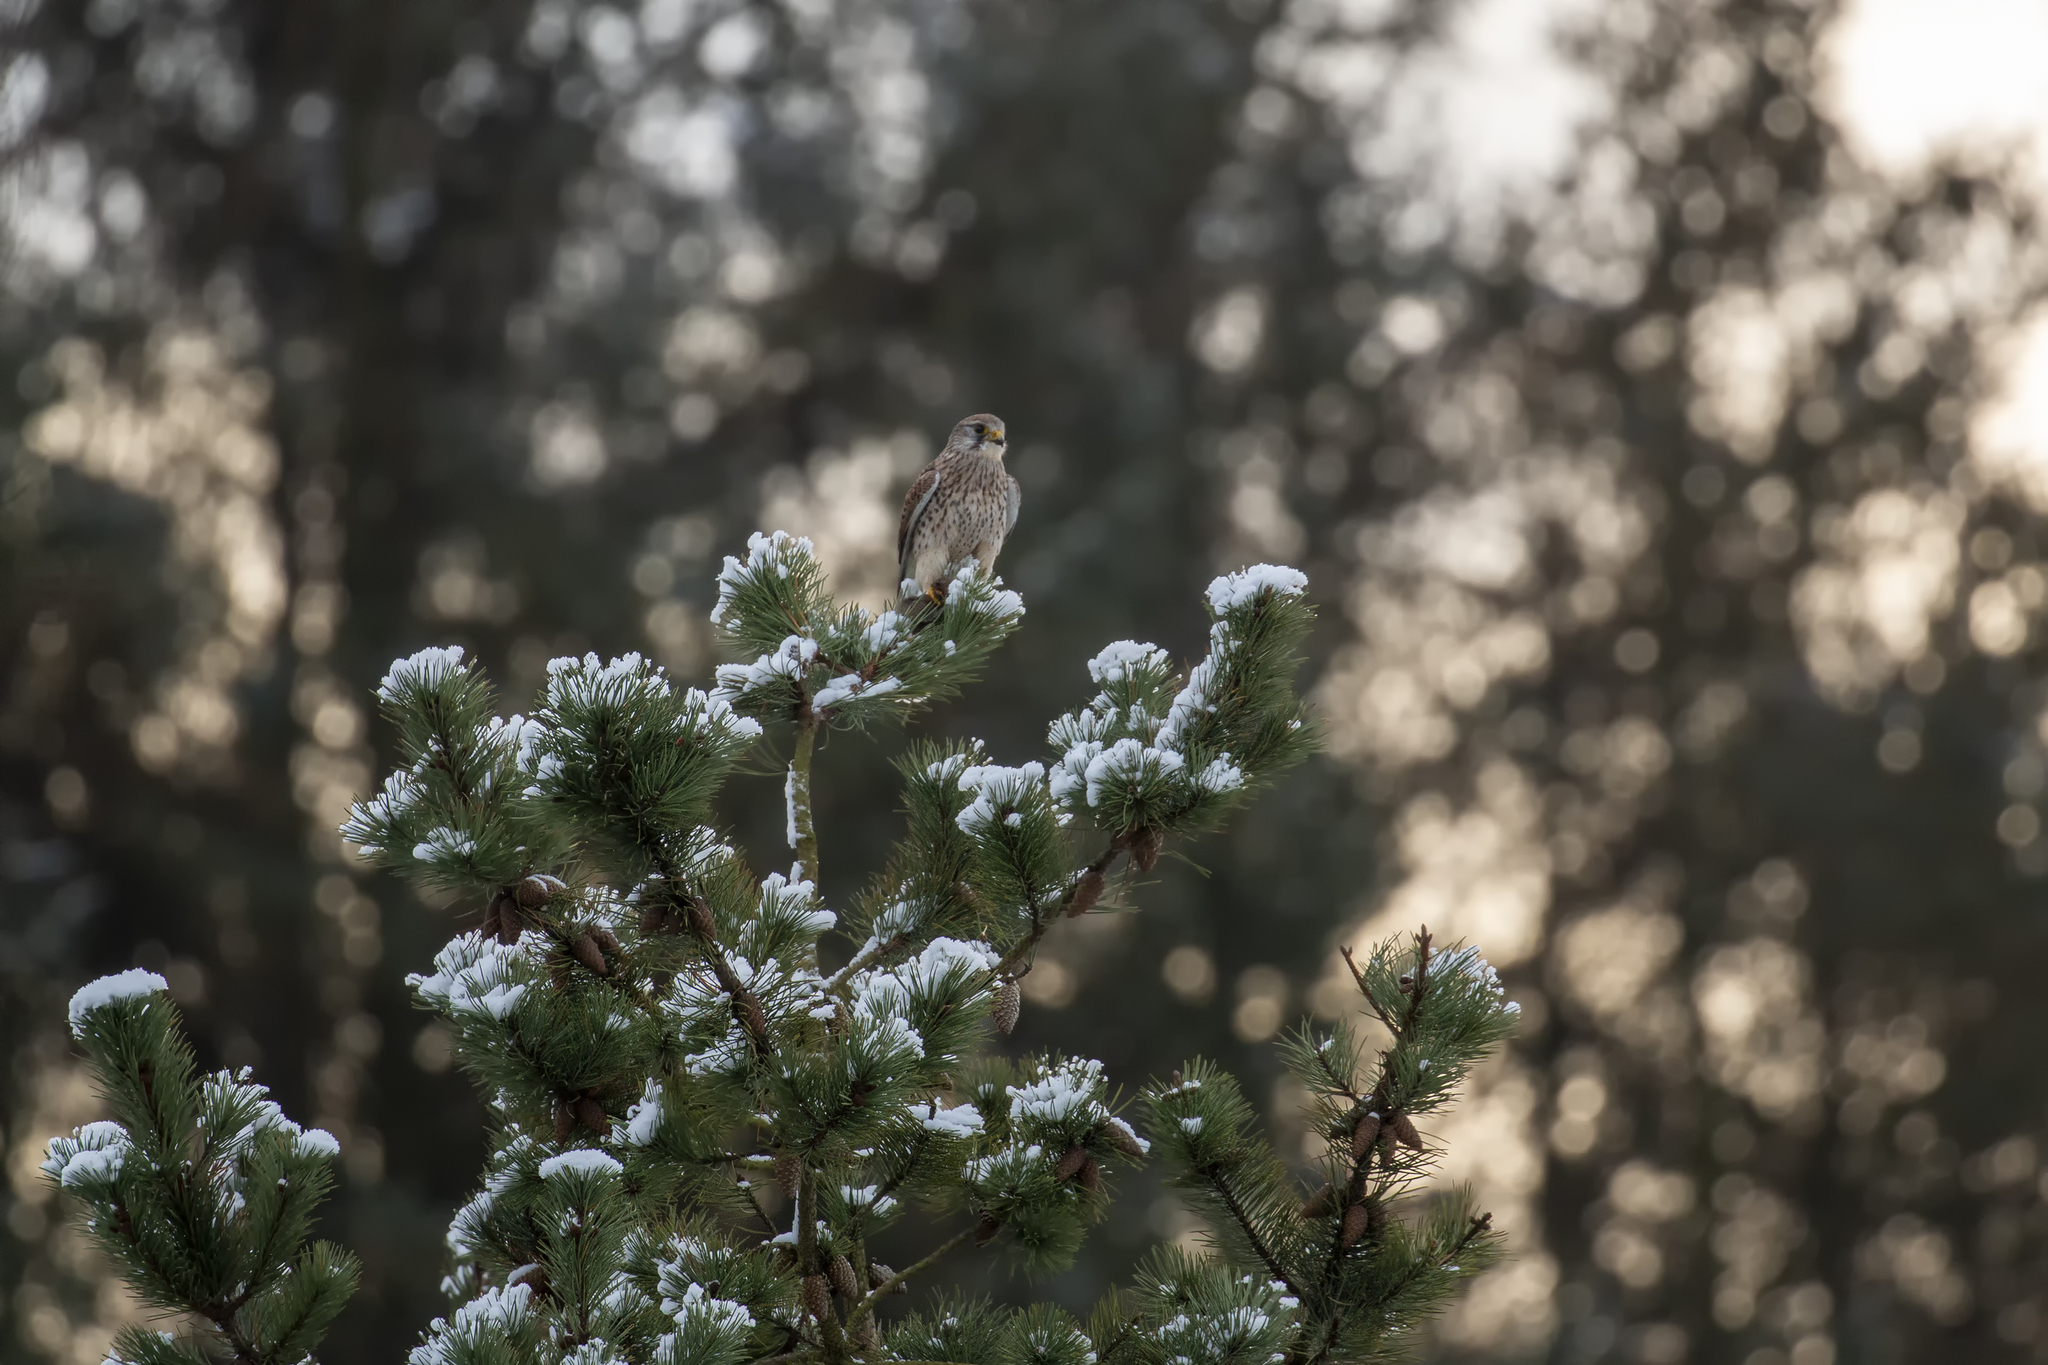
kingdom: Animalia
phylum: Chordata
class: Aves
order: Falconiformes
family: Falconidae
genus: Falco
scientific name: Falco tinnunculus
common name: Common kestrel
